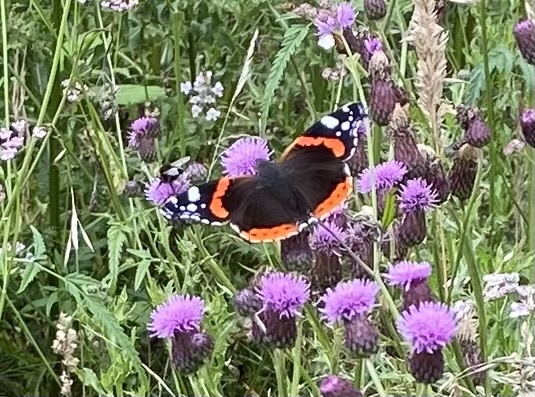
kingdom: Animalia
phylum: Arthropoda
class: Insecta
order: Lepidoptera
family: Nymphalidae
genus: Vanessa
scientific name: Vanessa atalanta
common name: Red admiral
